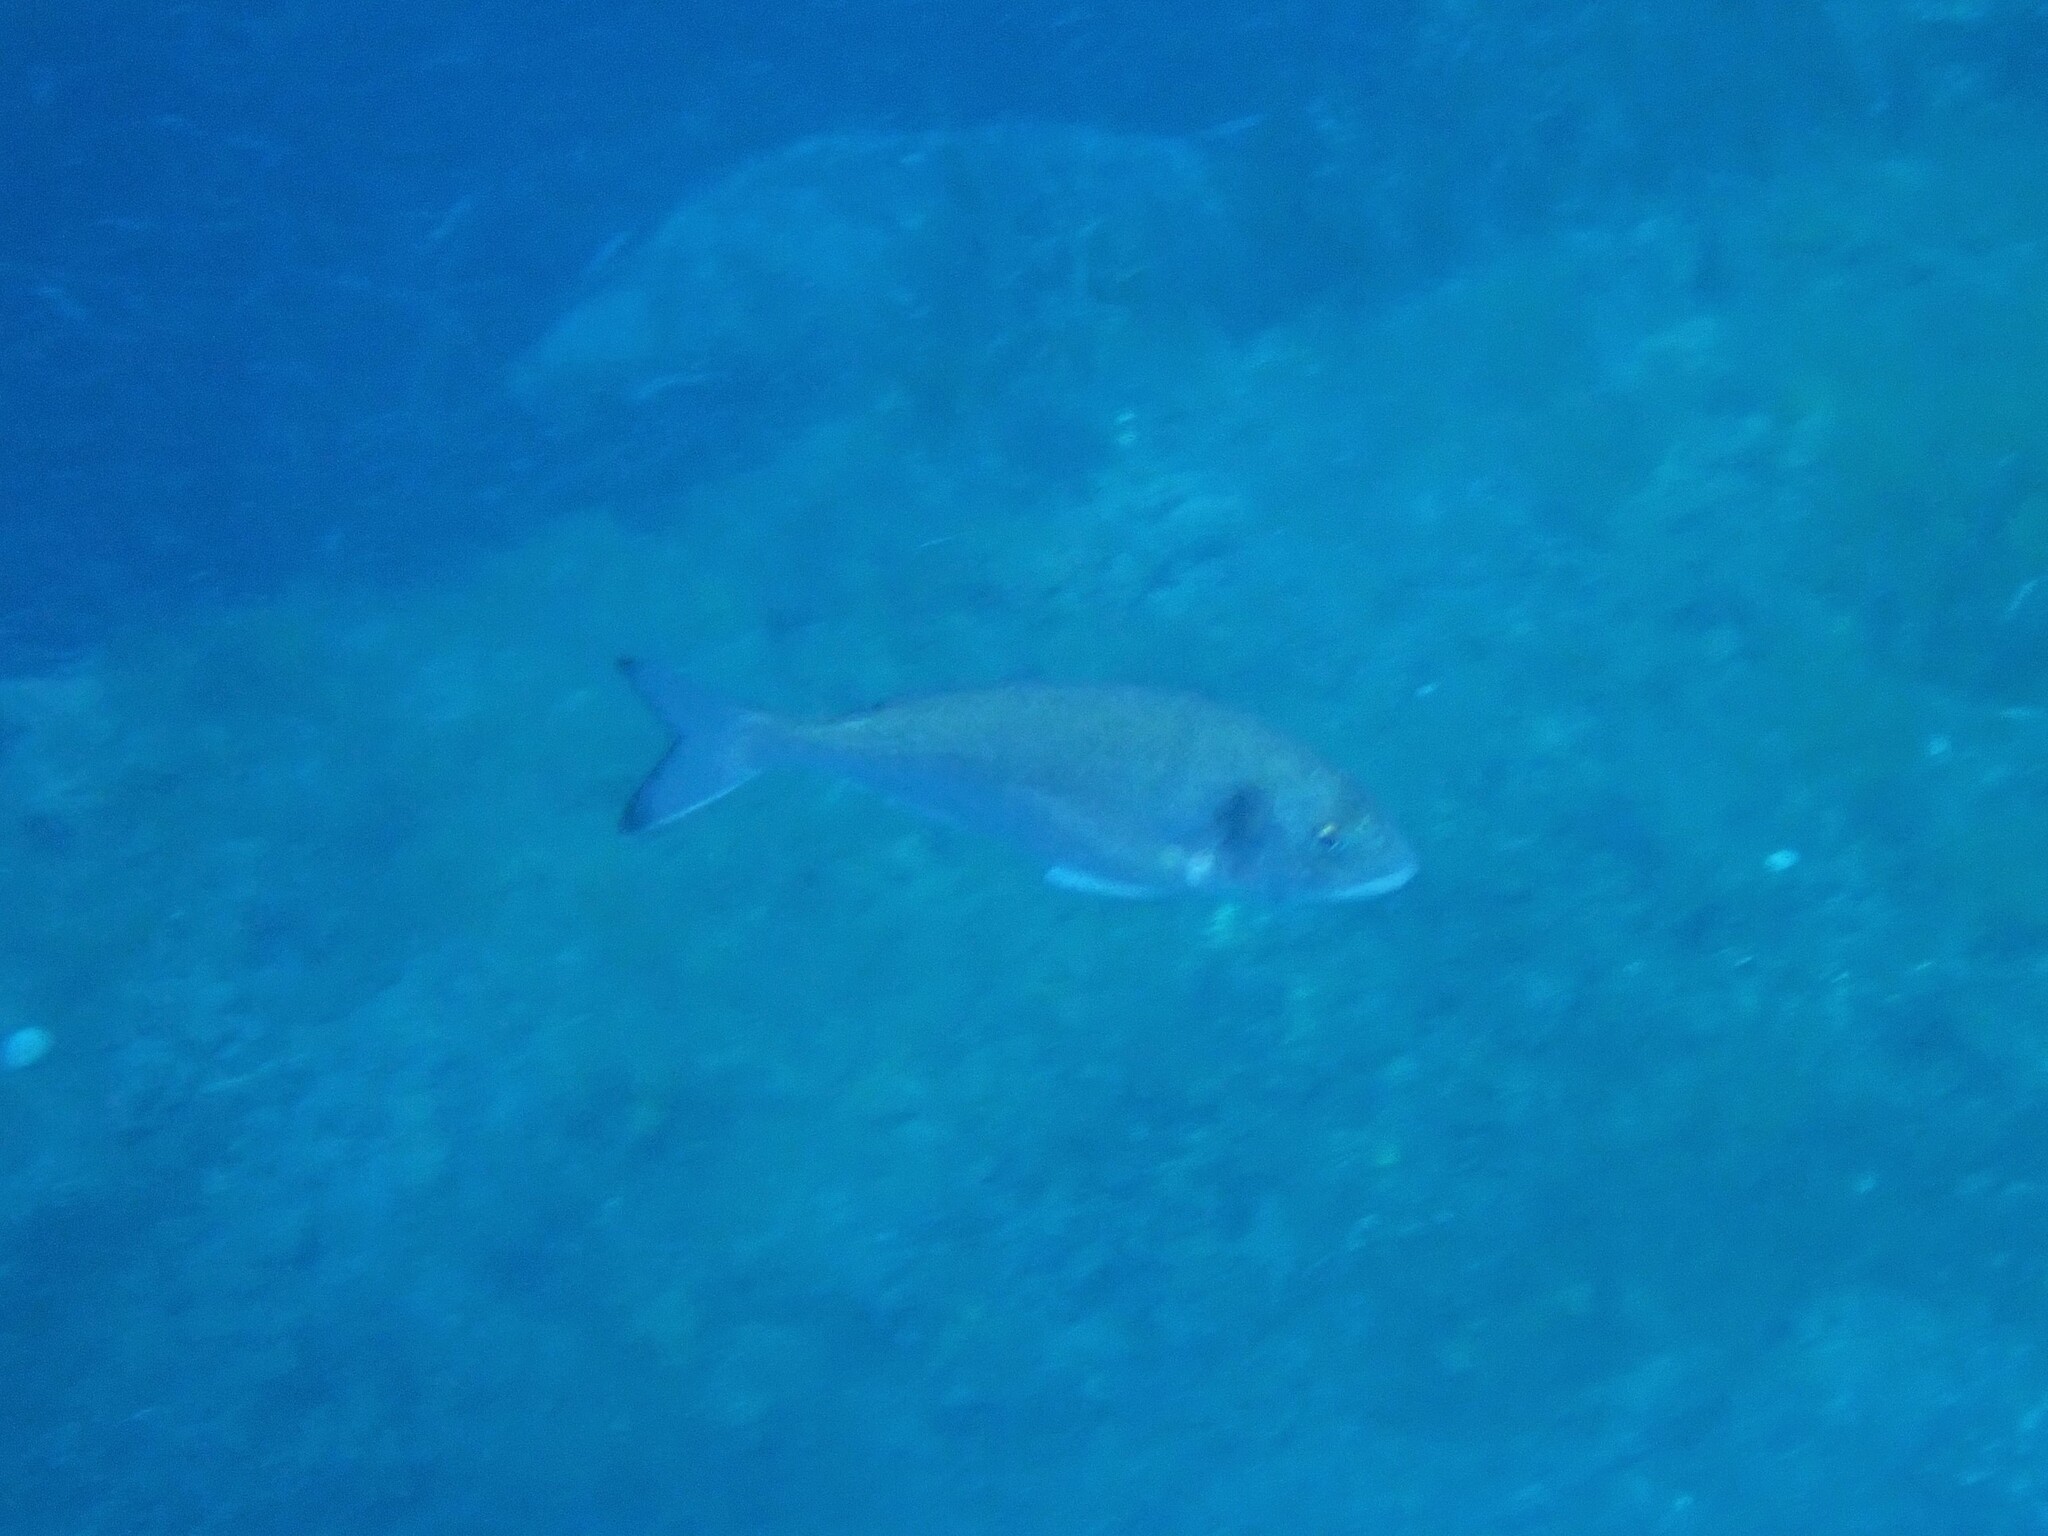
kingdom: Animalia
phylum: Chordata
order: Perciformes
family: Sparidae
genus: Sparus
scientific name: Sparus aurata
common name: Gilthead
